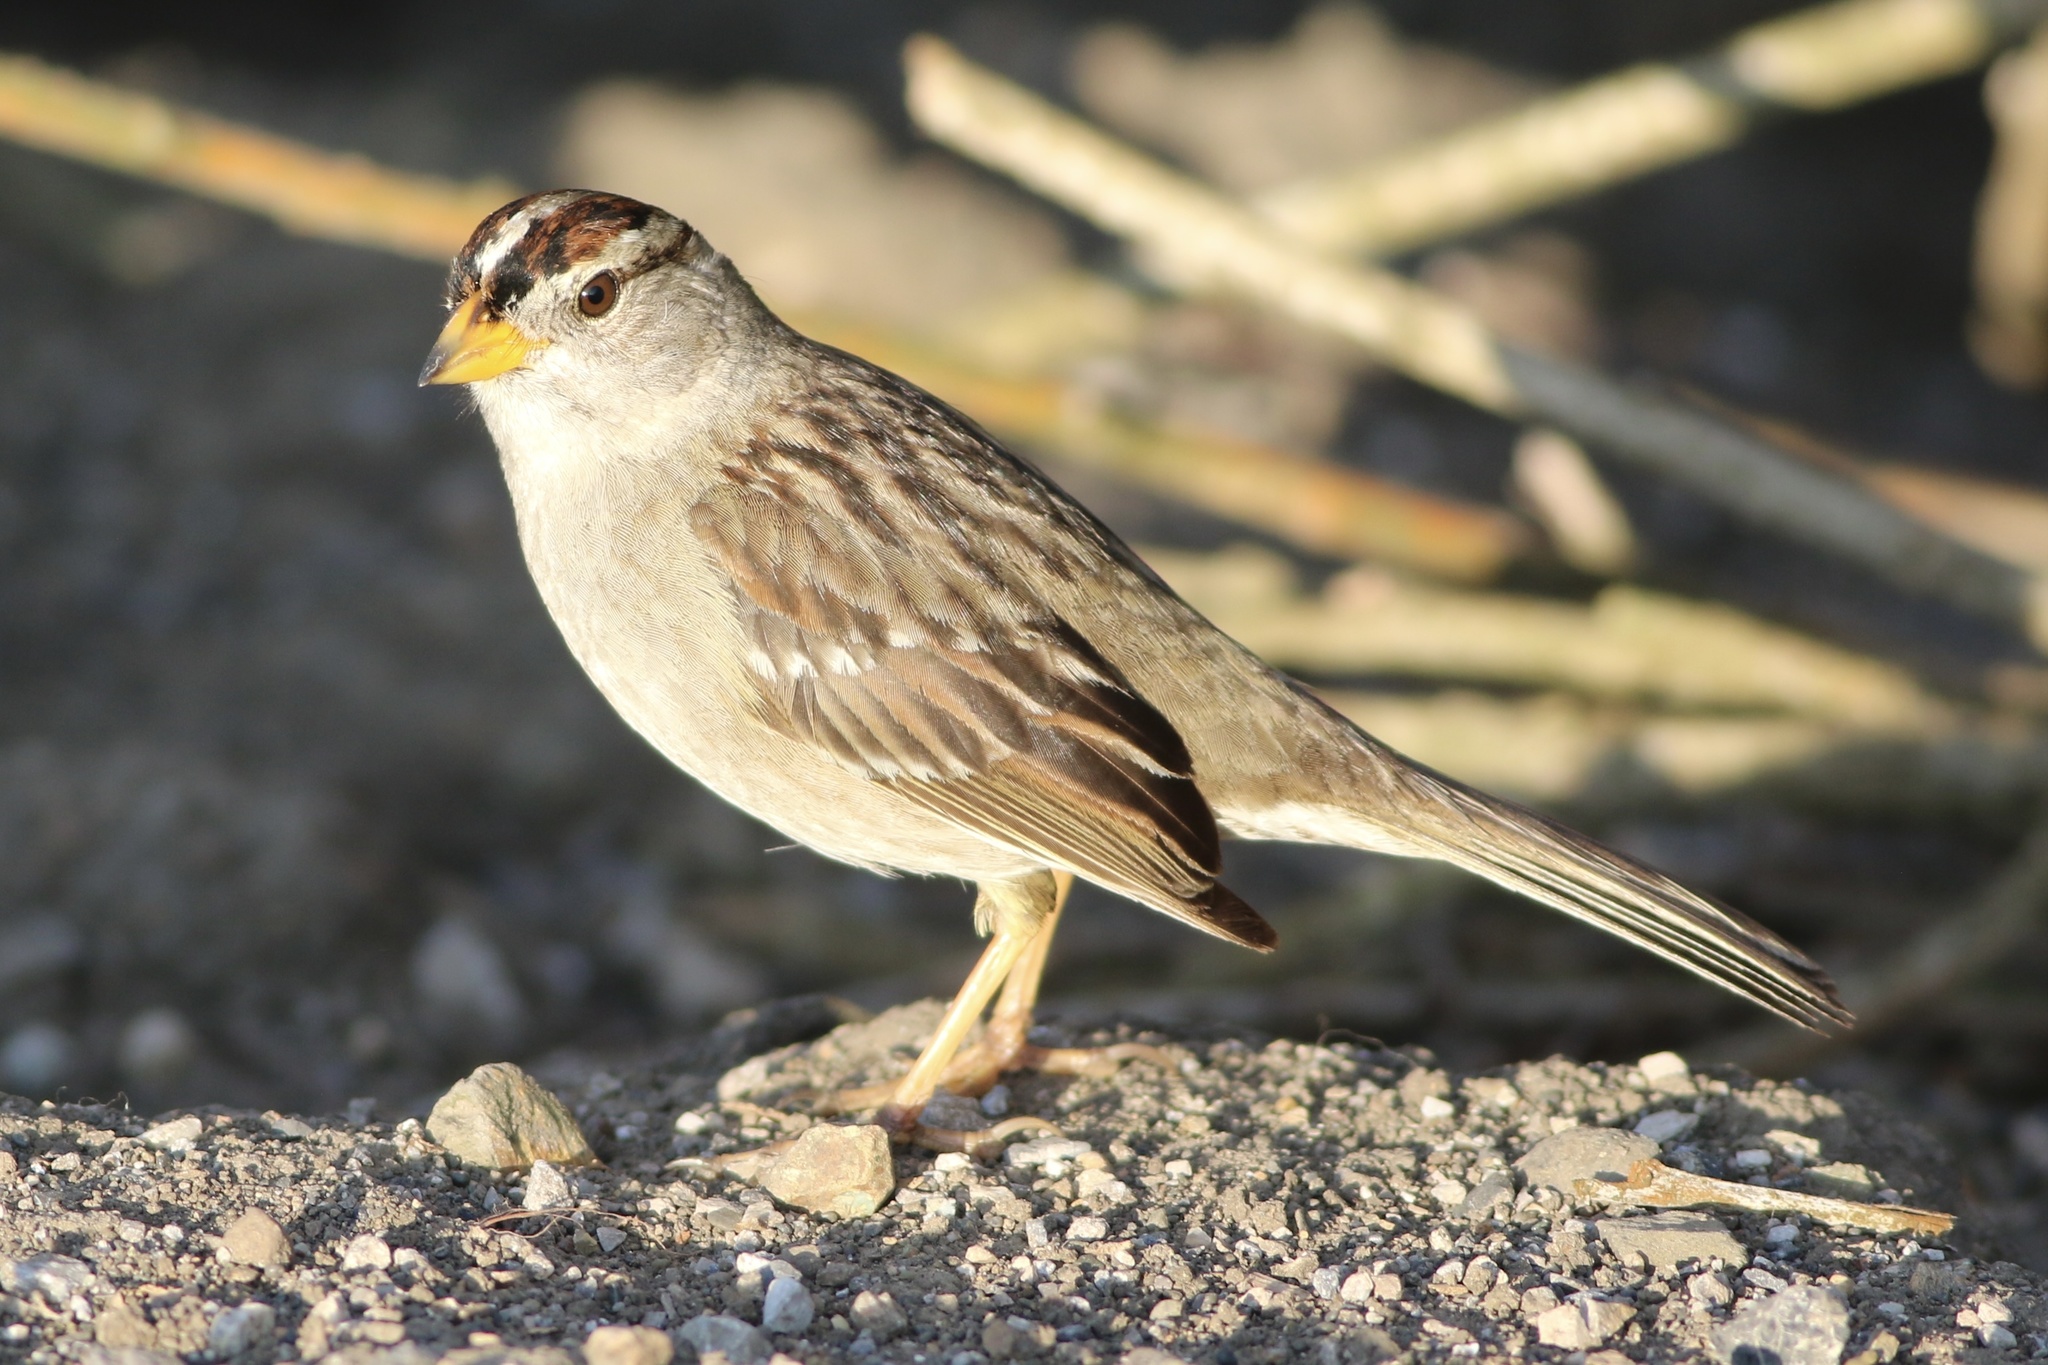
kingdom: Animalia
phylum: Chordata
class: Aves
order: Passeriformes
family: Passerellidae
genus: Zonotrichia
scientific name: Zonotrichia leucophrys
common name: White-crowned sparrow
